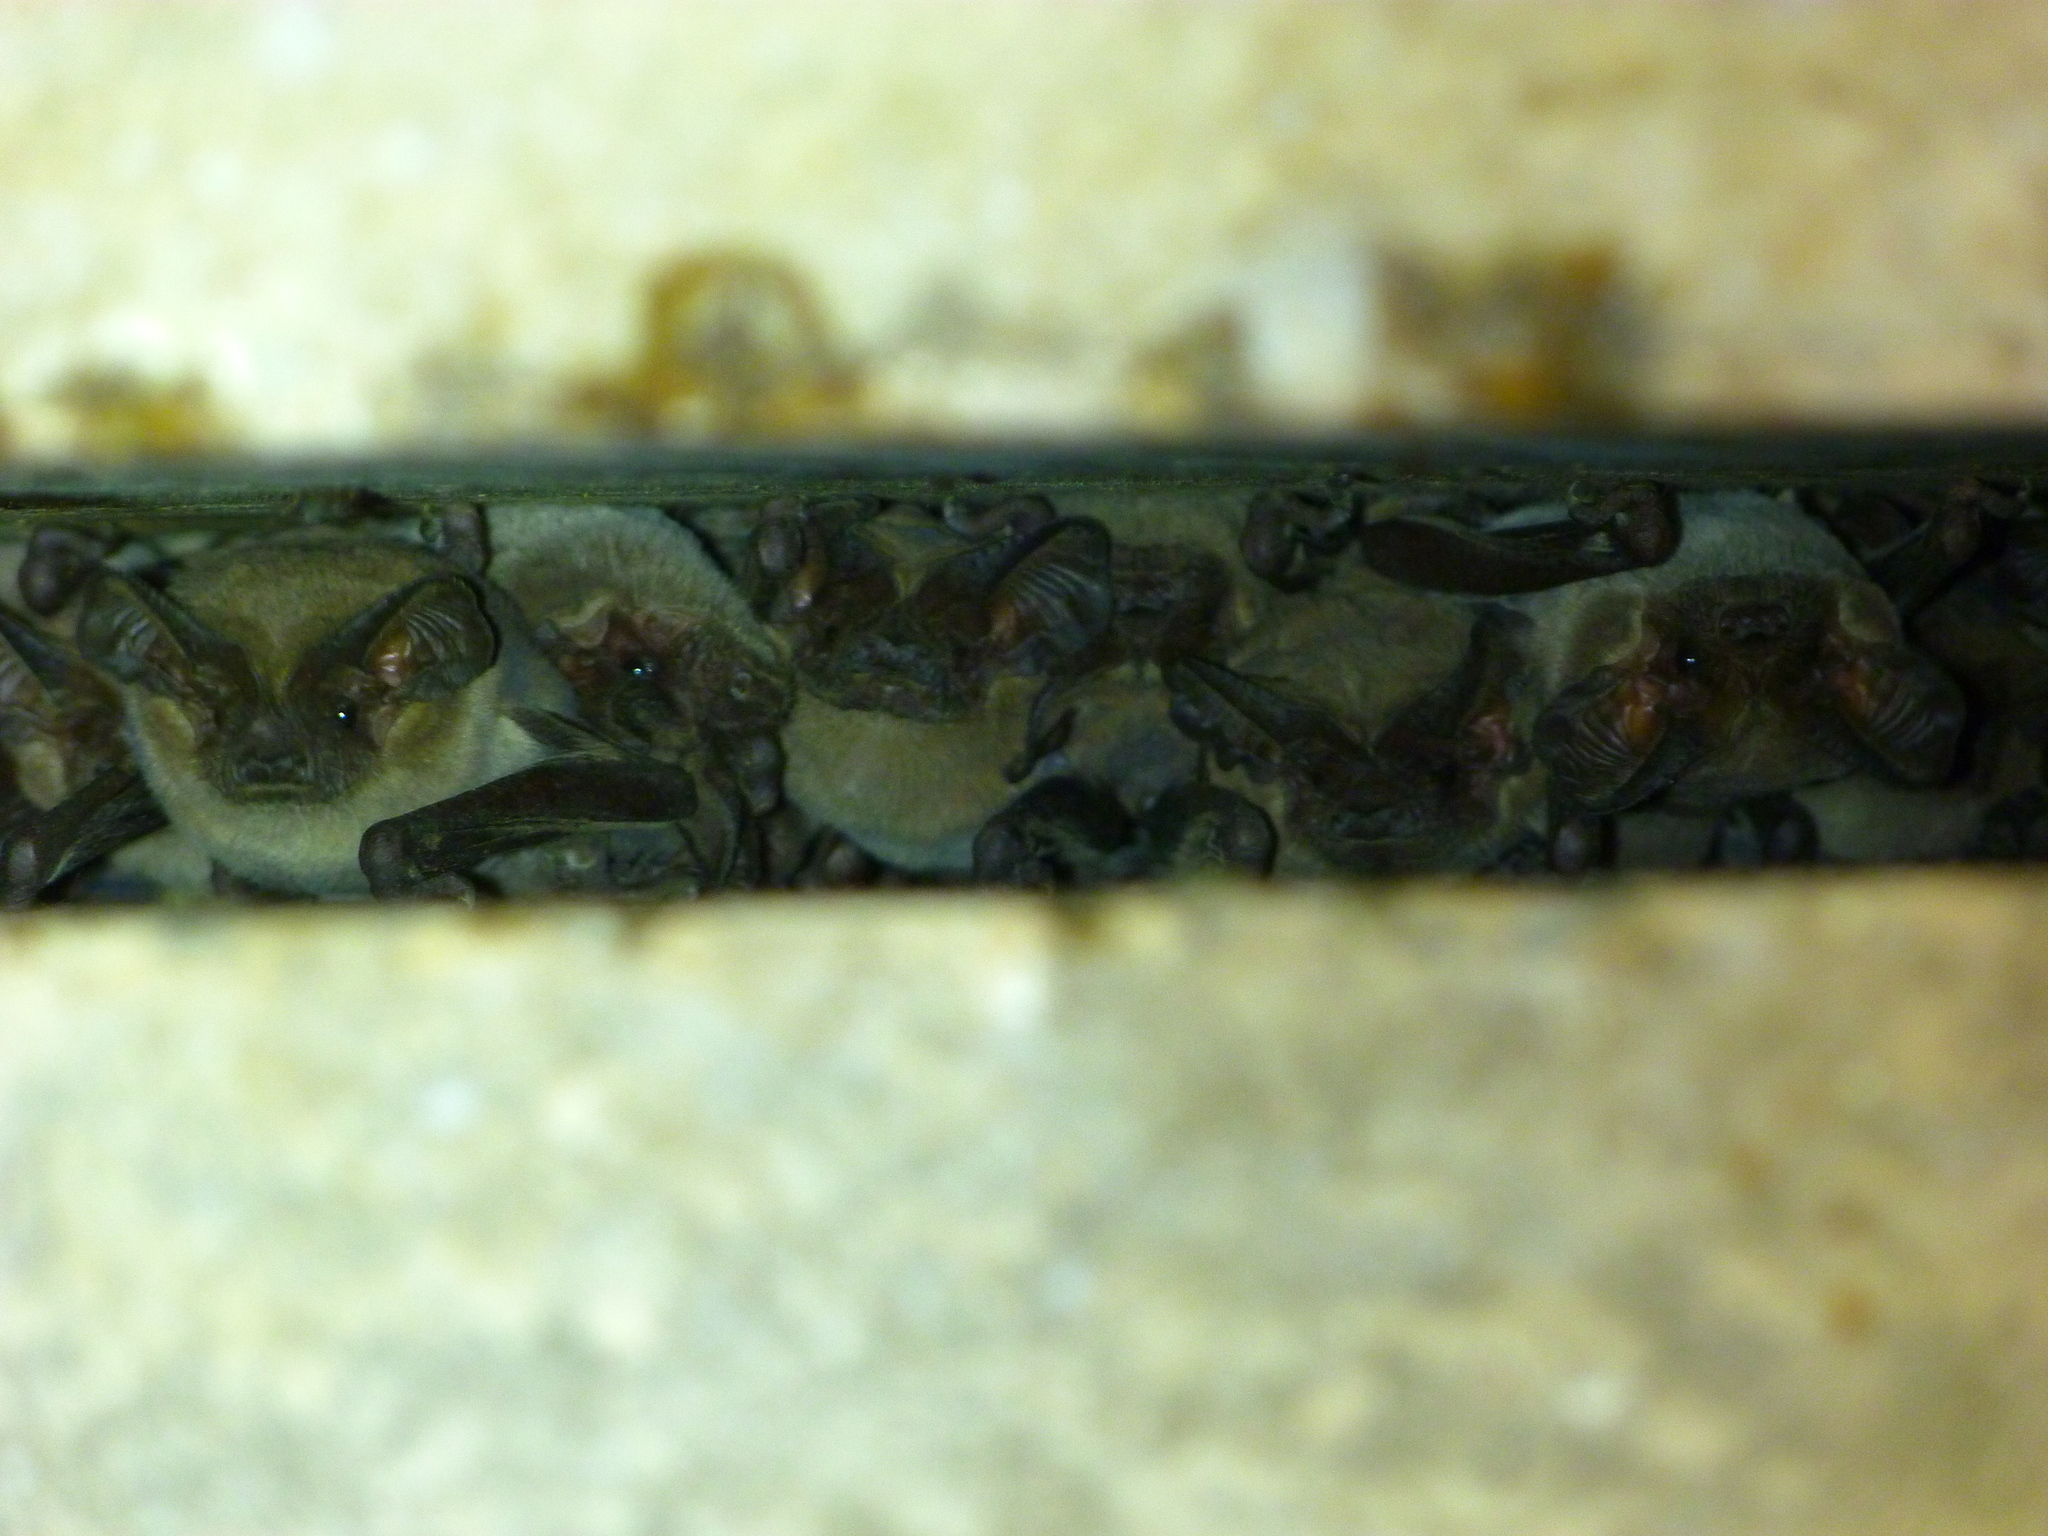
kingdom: Animalia
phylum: Chordata
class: Mammalia
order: Chiroptera
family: Molossidae
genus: Tadarida
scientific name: Tadarida brasiliensis
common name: Mexican free-tailed bat
